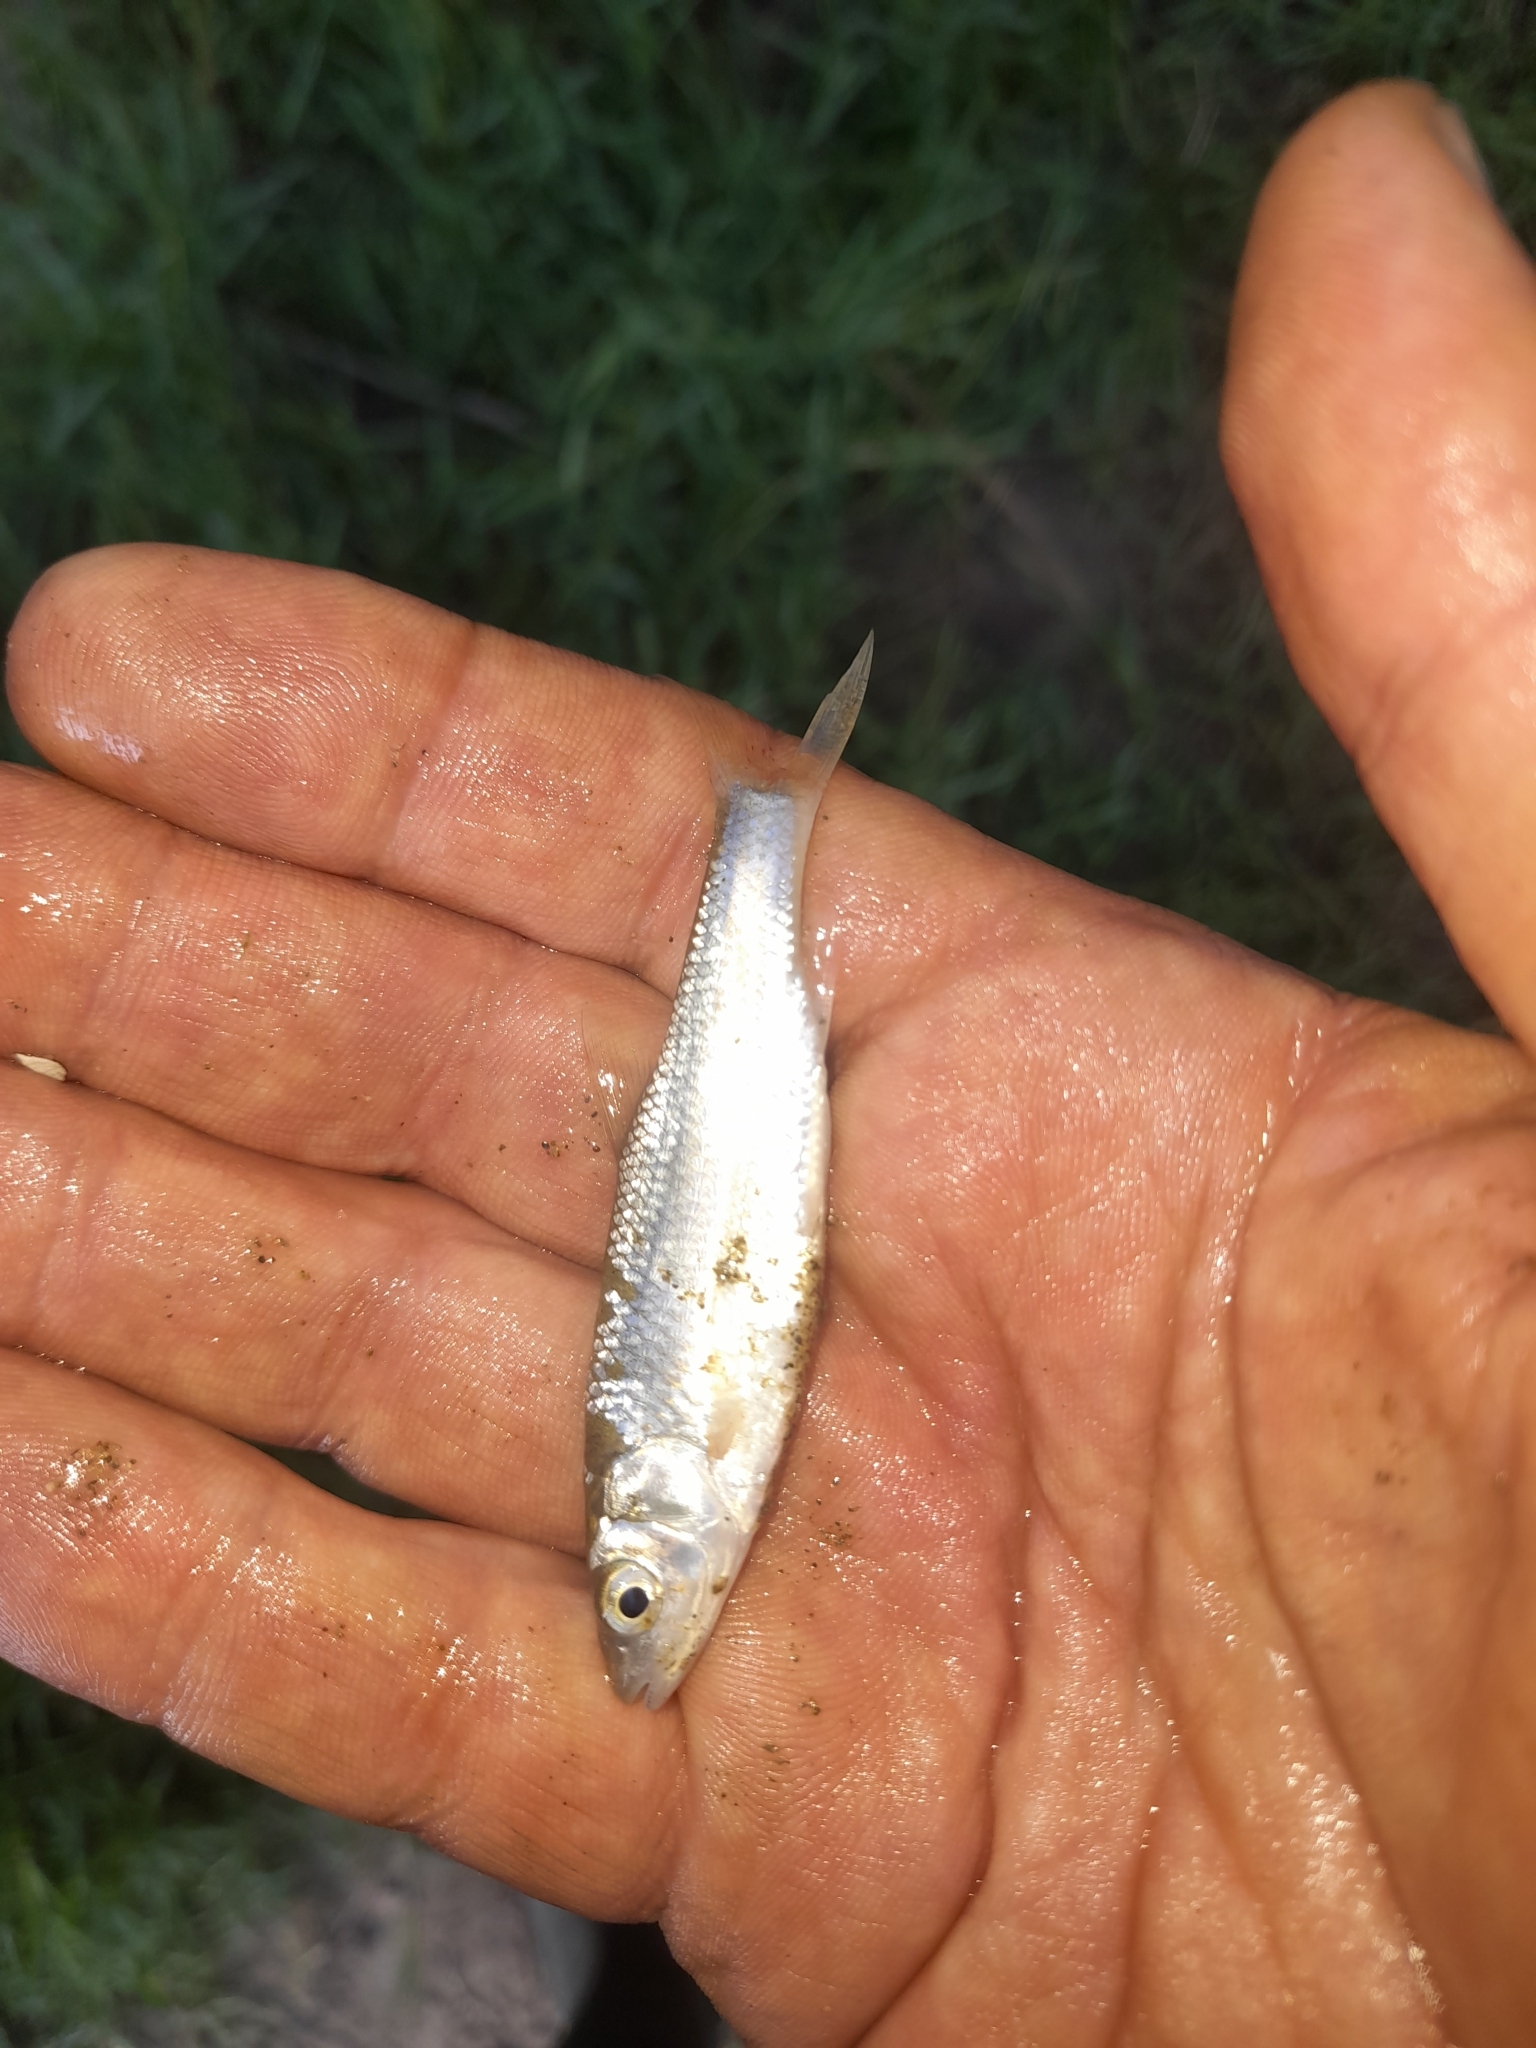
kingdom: Animalia
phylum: Chordata
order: Cypriniformes
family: Cyprinidae
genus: Squalius
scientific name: Squalius squalus
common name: Italian chub
